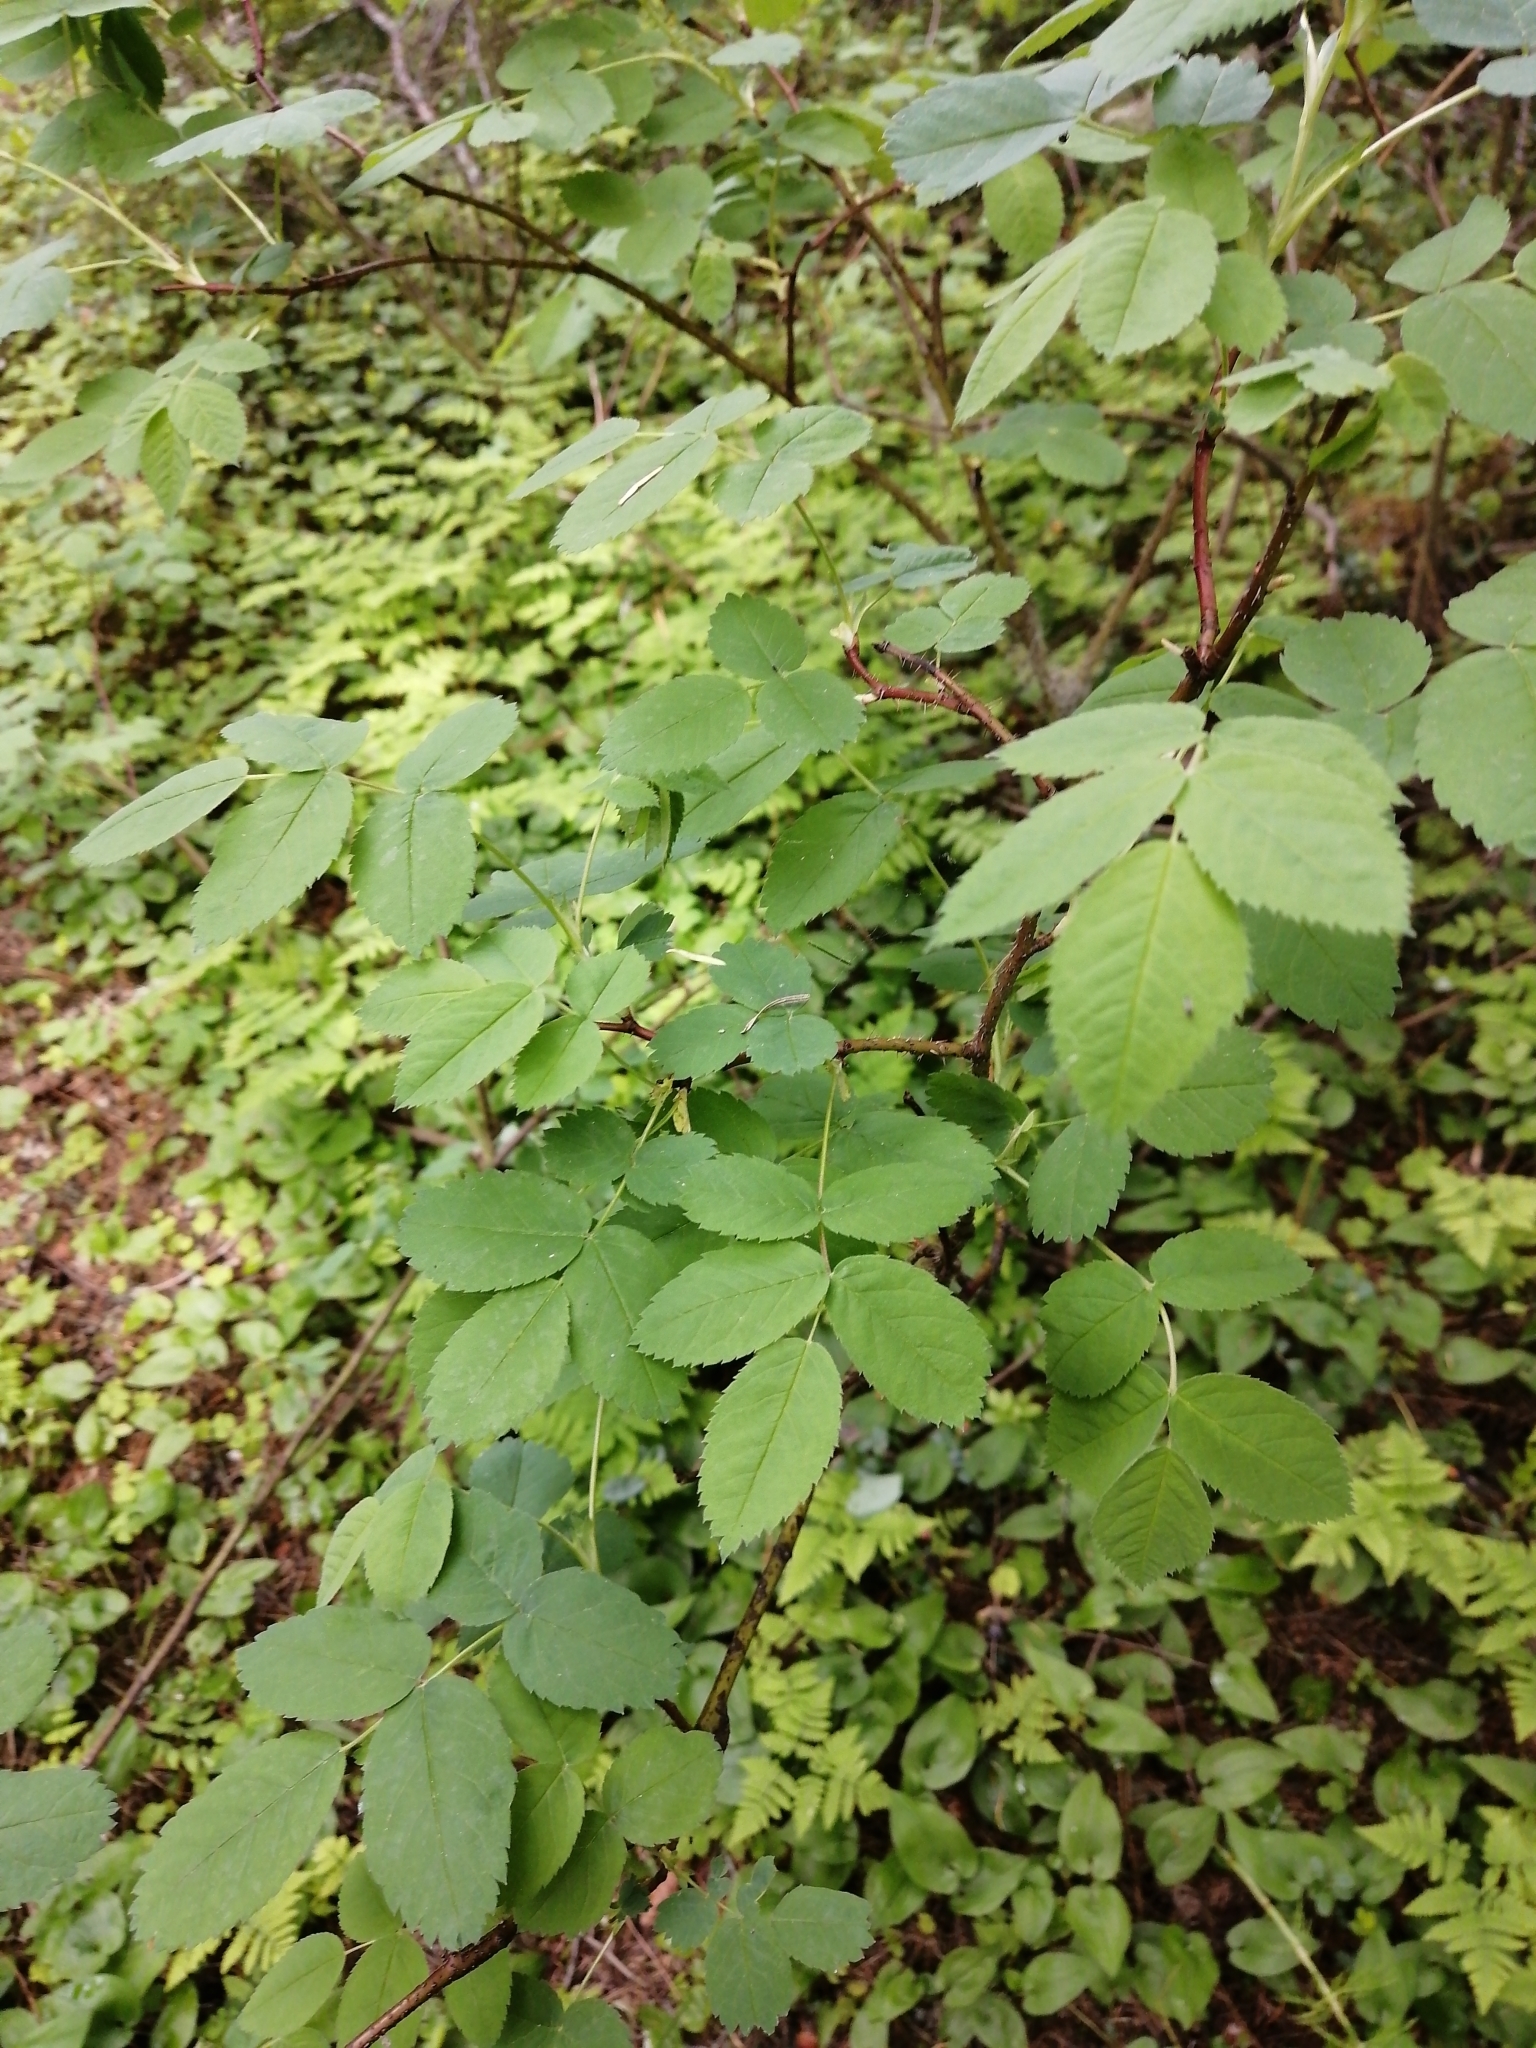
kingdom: Plantae
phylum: Tracheophyta
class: Magnoliopsida
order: Rosales
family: Rosaceae
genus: Rosa
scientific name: Rosa acicularis
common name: Prickly rose
